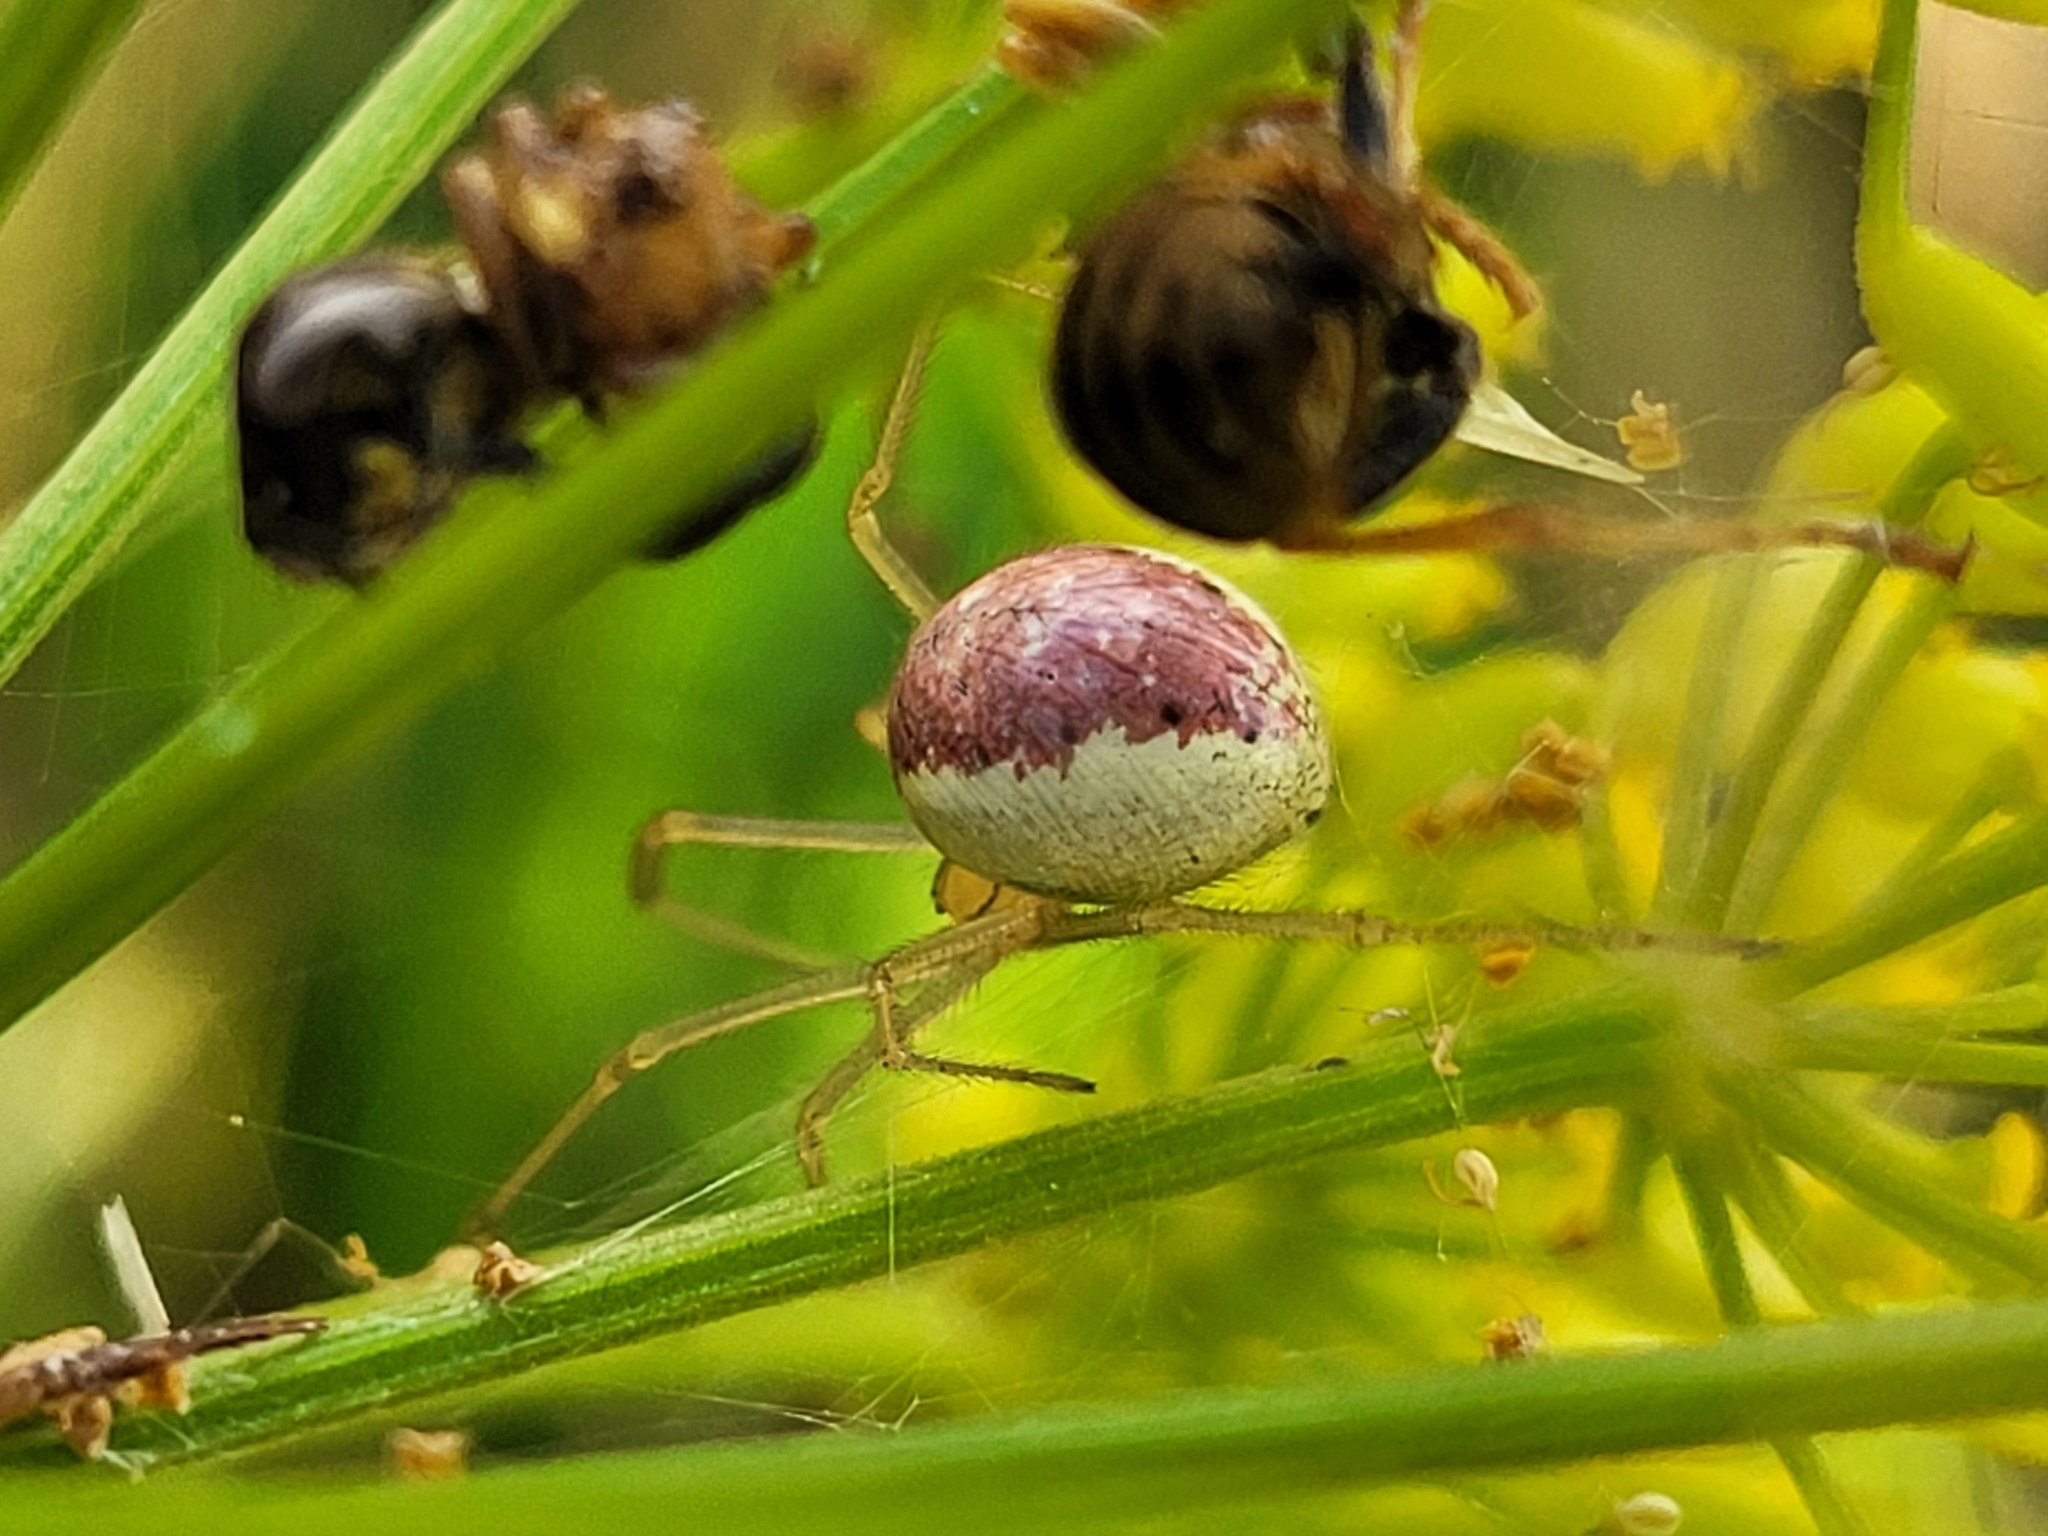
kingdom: Animalia
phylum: Arthropoda
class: Arachnida
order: Araneae
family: Theridiidae
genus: Enoplognatha
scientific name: Enoplognatha ovata
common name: Common candy-striped spider
